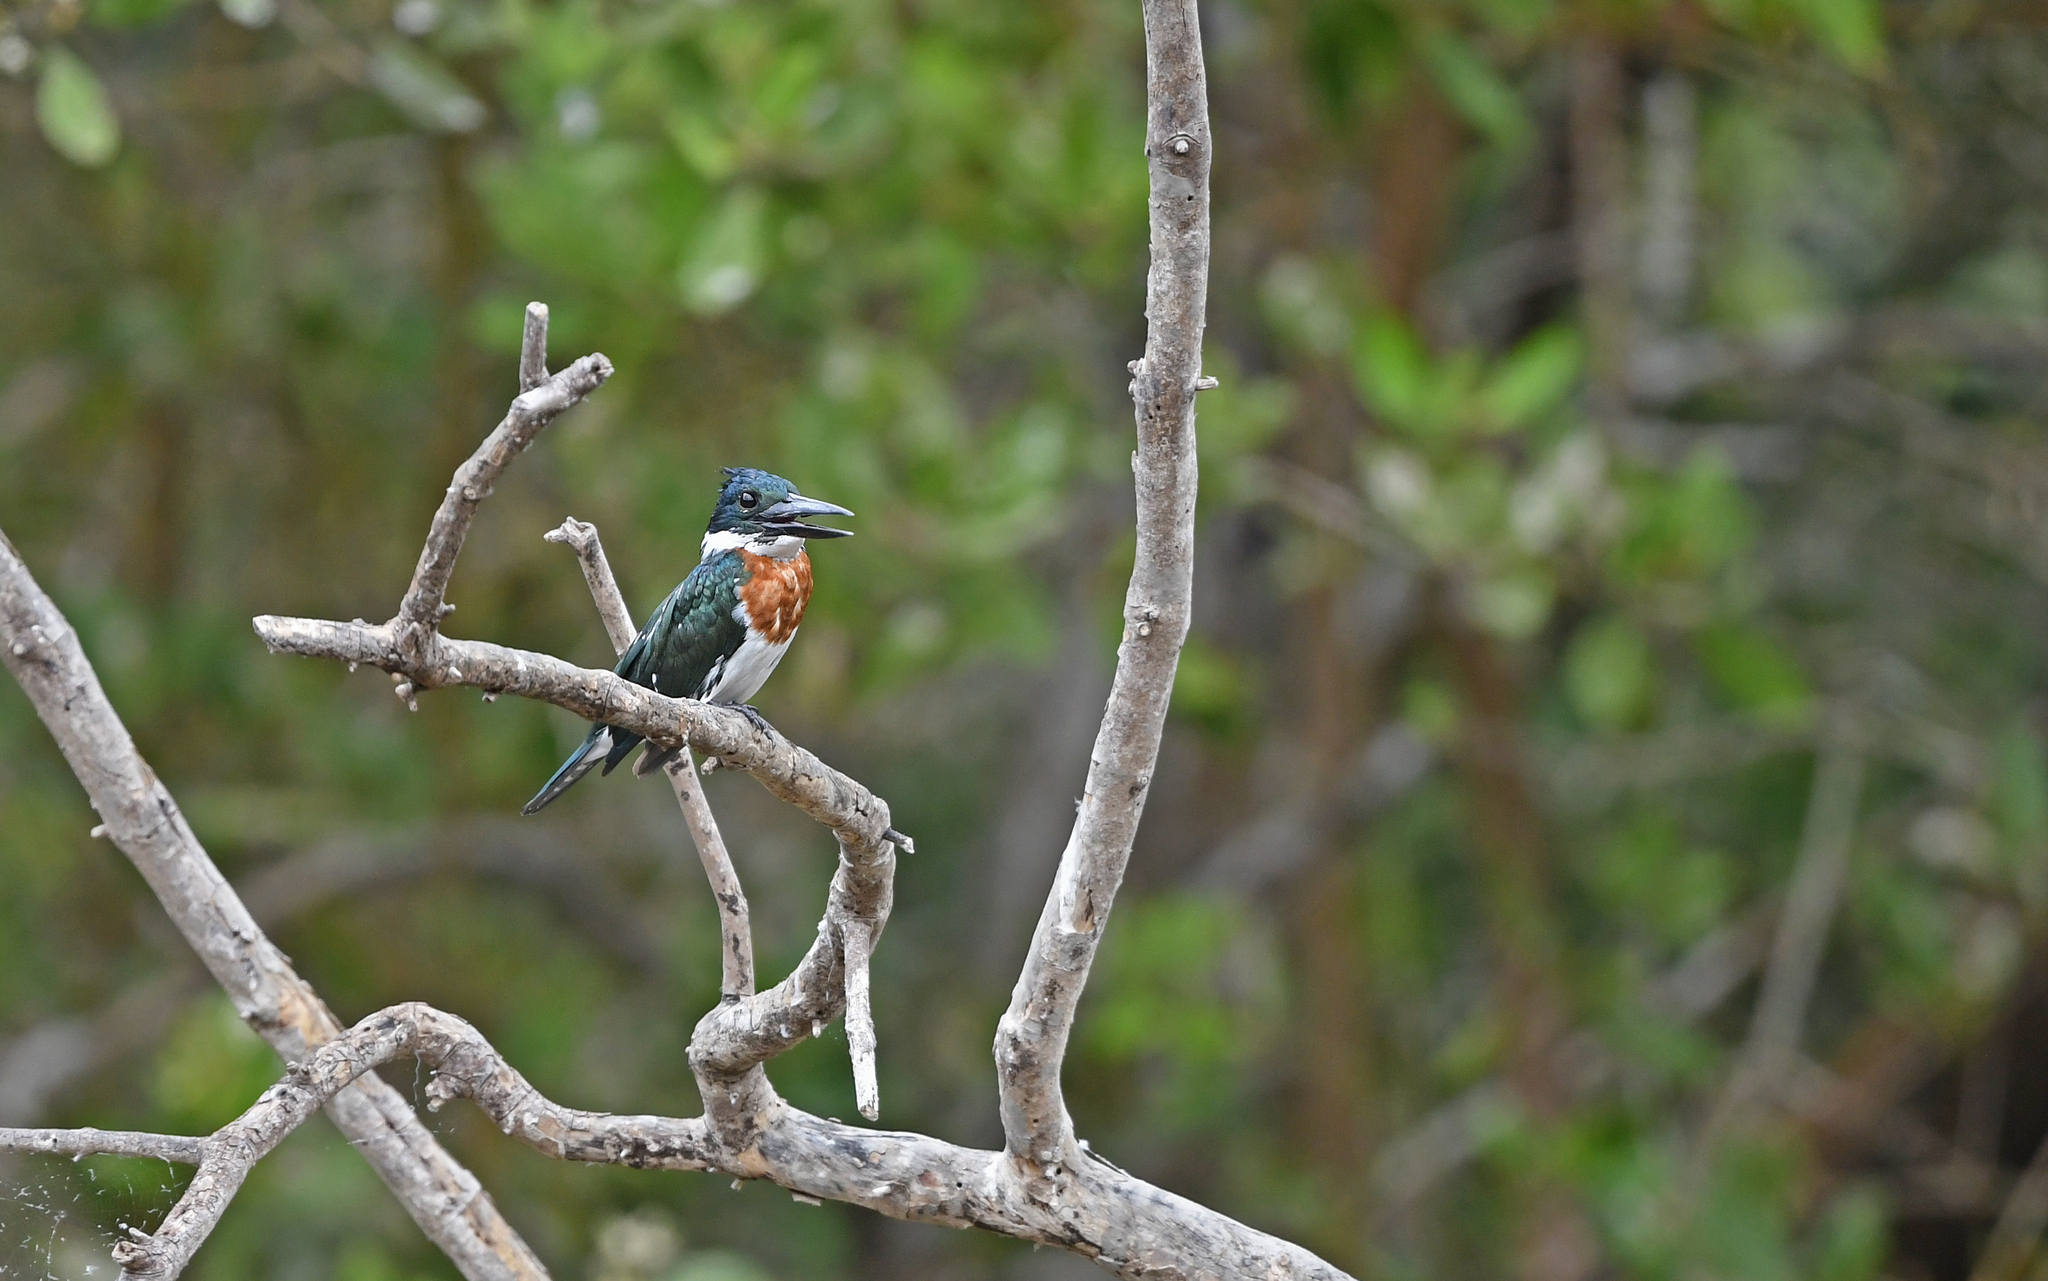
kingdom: Animalia
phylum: Chordata
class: Aves
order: Coraciiformes
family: Alcedinidae
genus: Chloroceryle
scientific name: Chloroceryle amazona
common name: Amazon kingfisher
